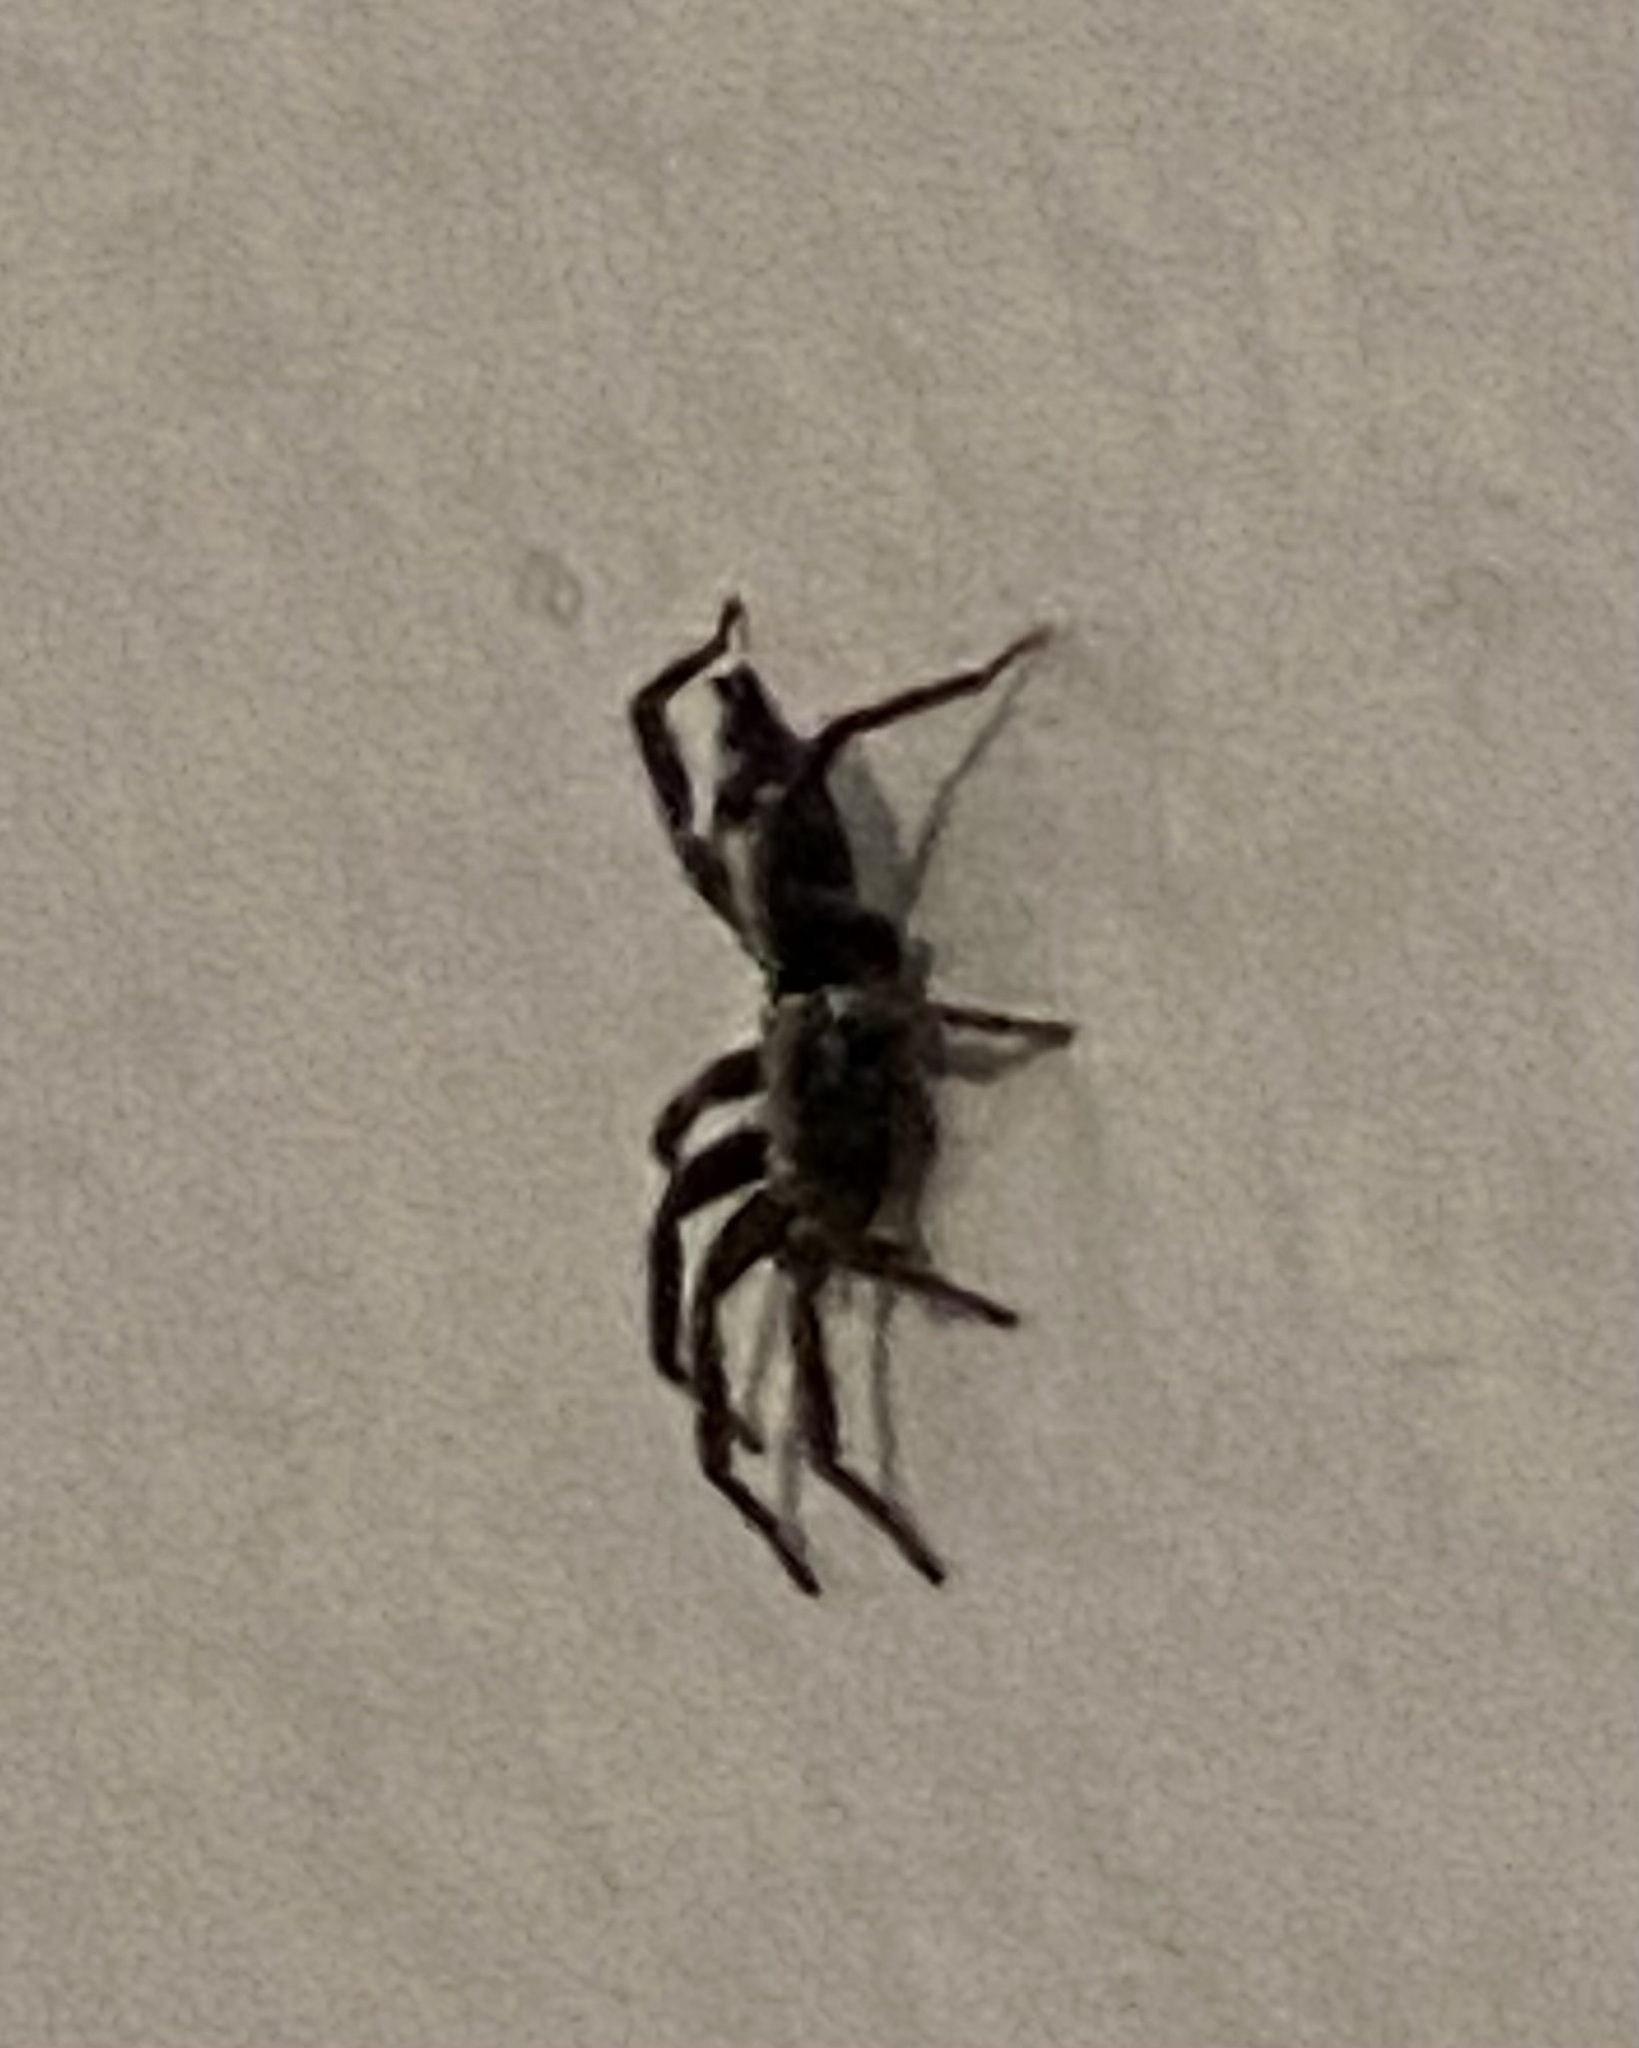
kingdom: Animalia
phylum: Arthropoda
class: Arachnida
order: Araneae
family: Gnaphosidae
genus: Herpyllus
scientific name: Herpyllus ecclesiasticus
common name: Eastern parson spider
